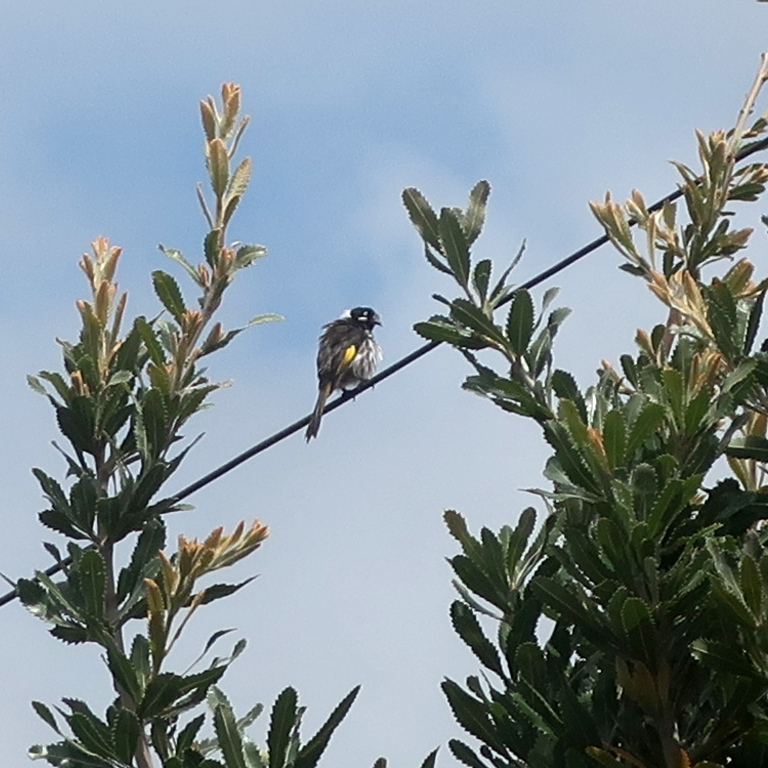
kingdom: Animalia
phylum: Chordata
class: Aves
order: Passeriformes
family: Meliphagidae
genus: Phylidonyris
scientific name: Phylidonyris novaehollandiae
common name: New holland honeyeater
